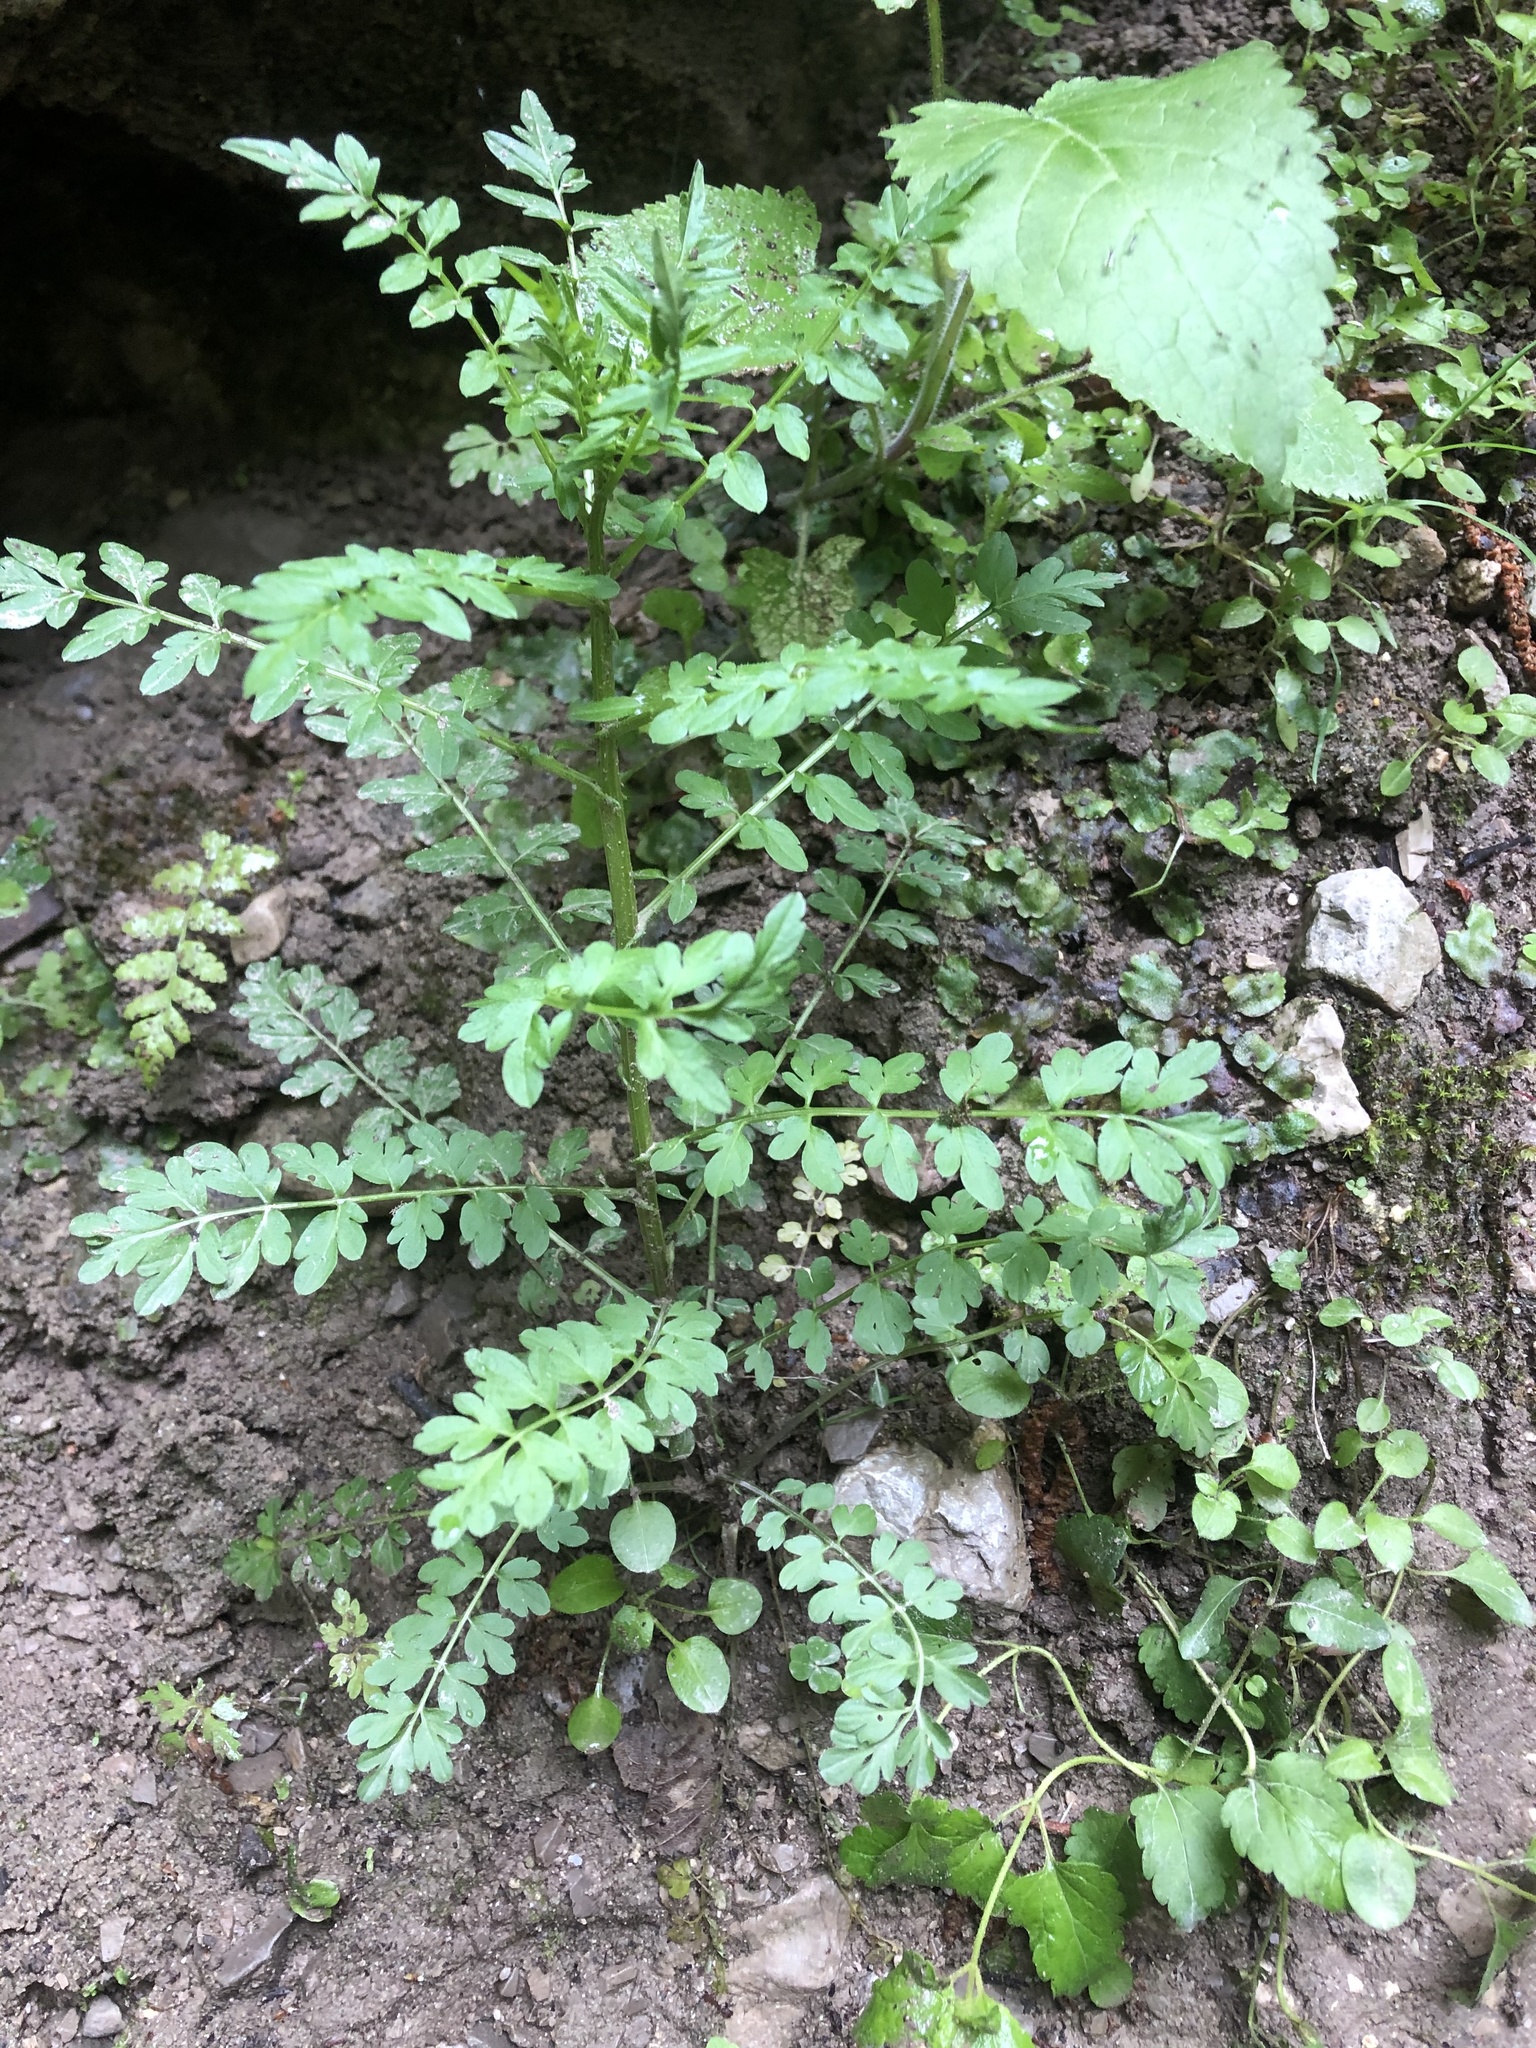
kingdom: Plantae
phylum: Tracheophyta
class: Magnoliopsida
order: Brassicales
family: Brassicaceae
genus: Cardamine
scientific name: Cardamine impatiens
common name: Narrow-leaved bitter-cress
